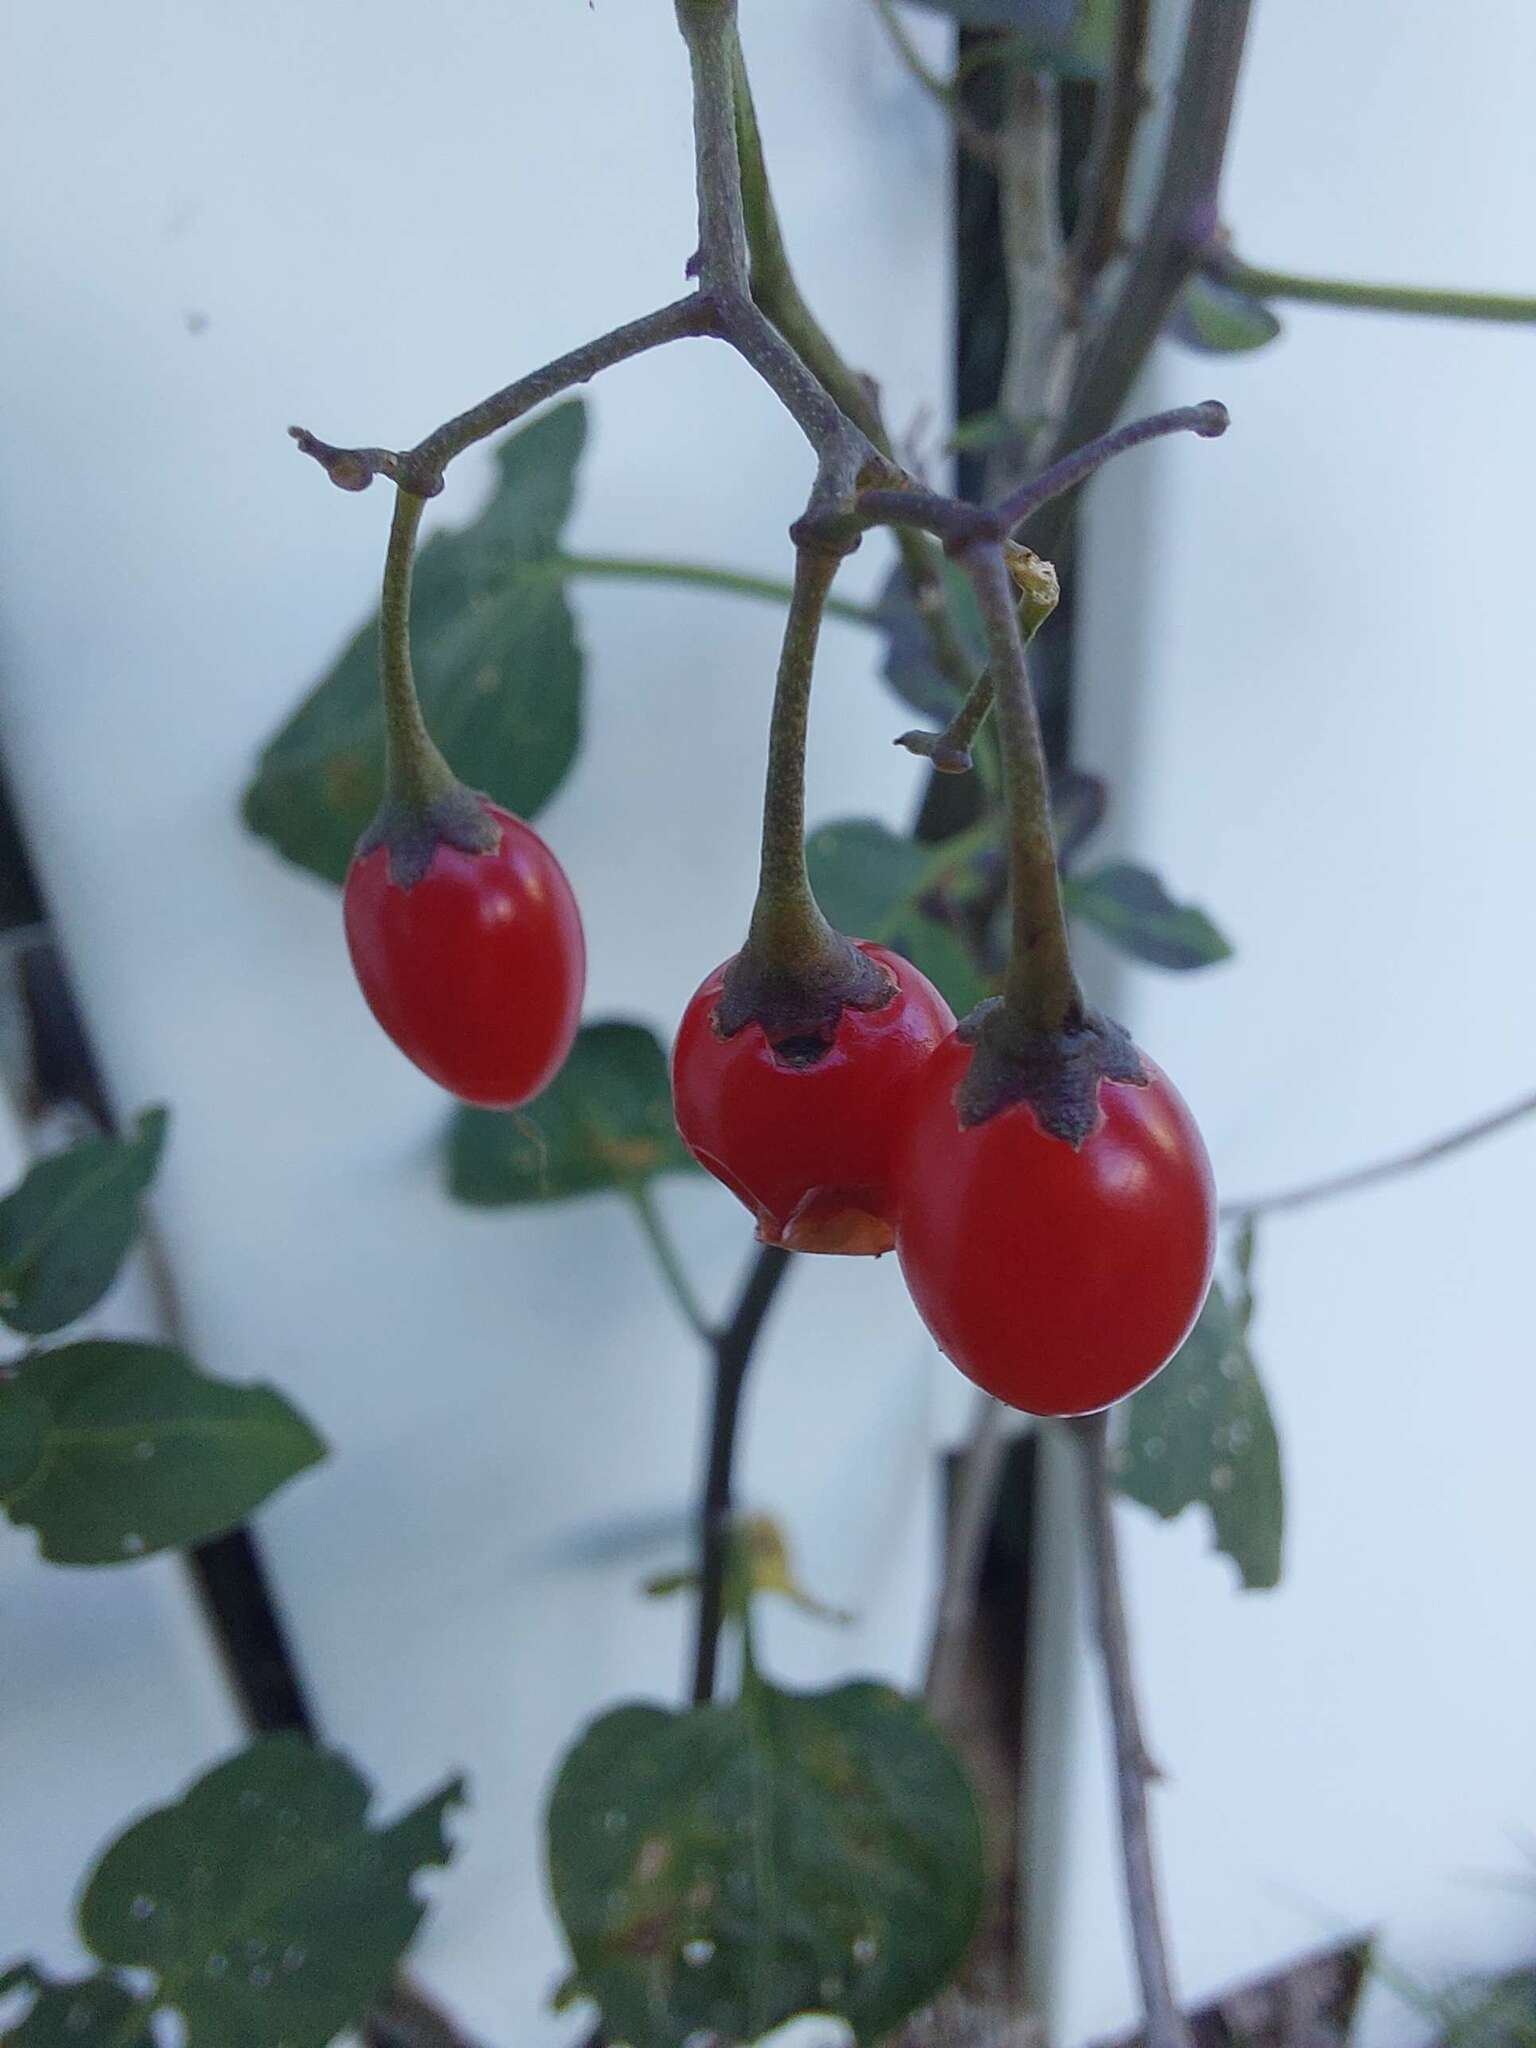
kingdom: Plantae
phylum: Tracheophyta
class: Magnoliopsida
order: Solanales
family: Solanaceae
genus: Solanum
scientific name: Solanum dulcamara
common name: Climbing nightshade
